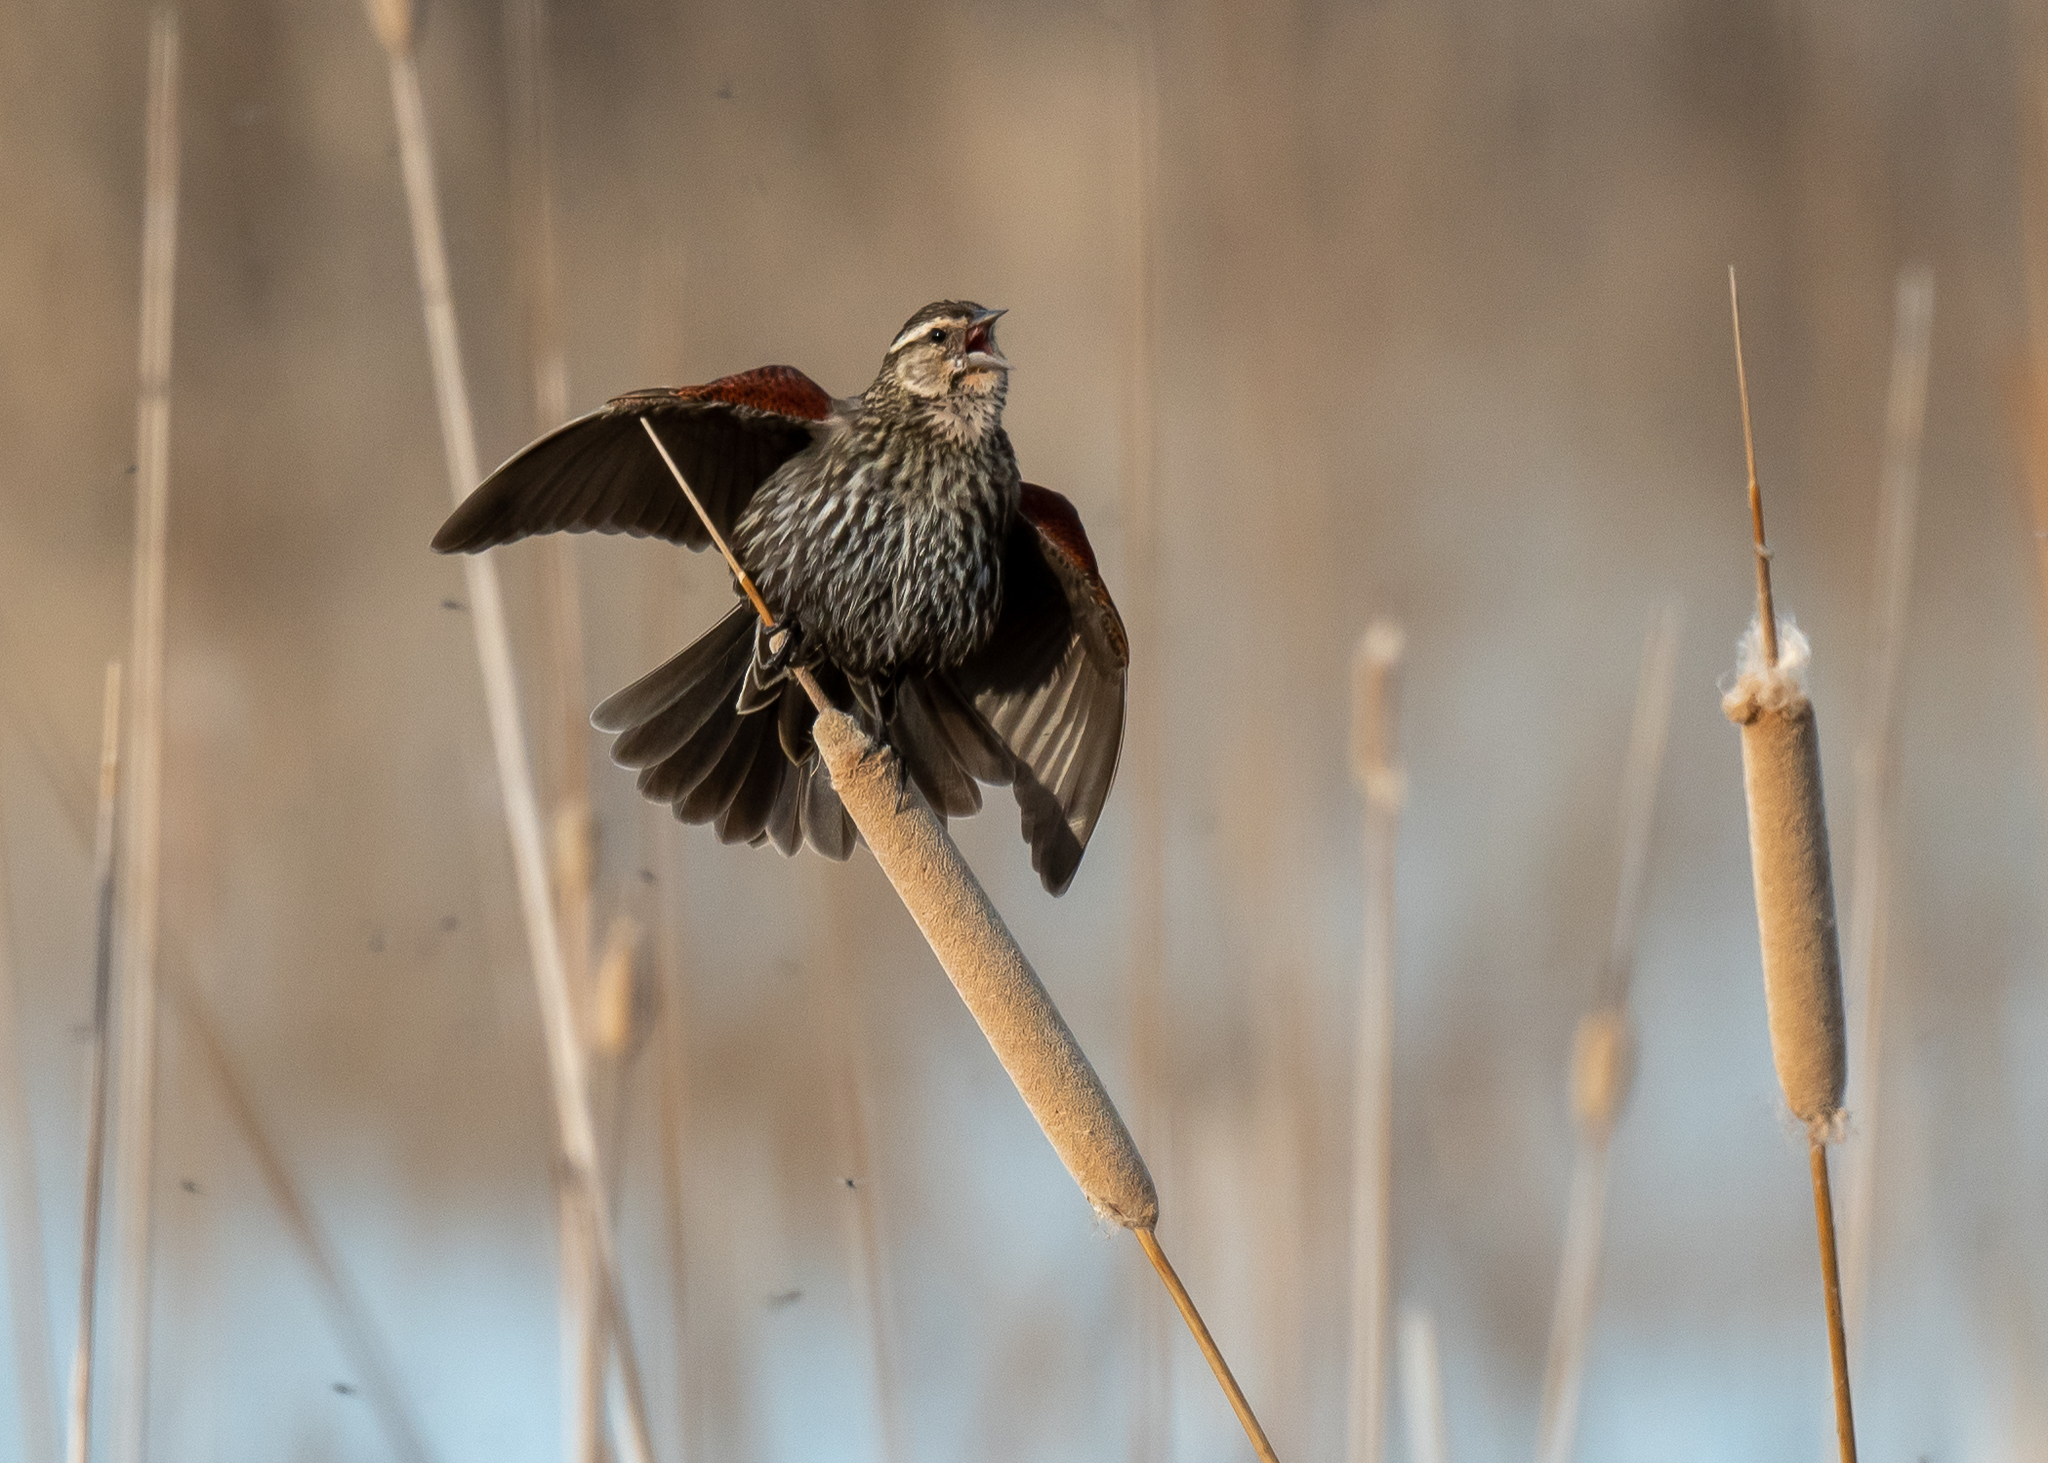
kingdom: Animalia
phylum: Chordata
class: Aves
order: Passeriformes
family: Icteridae
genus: Agelaius
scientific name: Agelaius phoeniceus
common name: Red-winged blackbird
